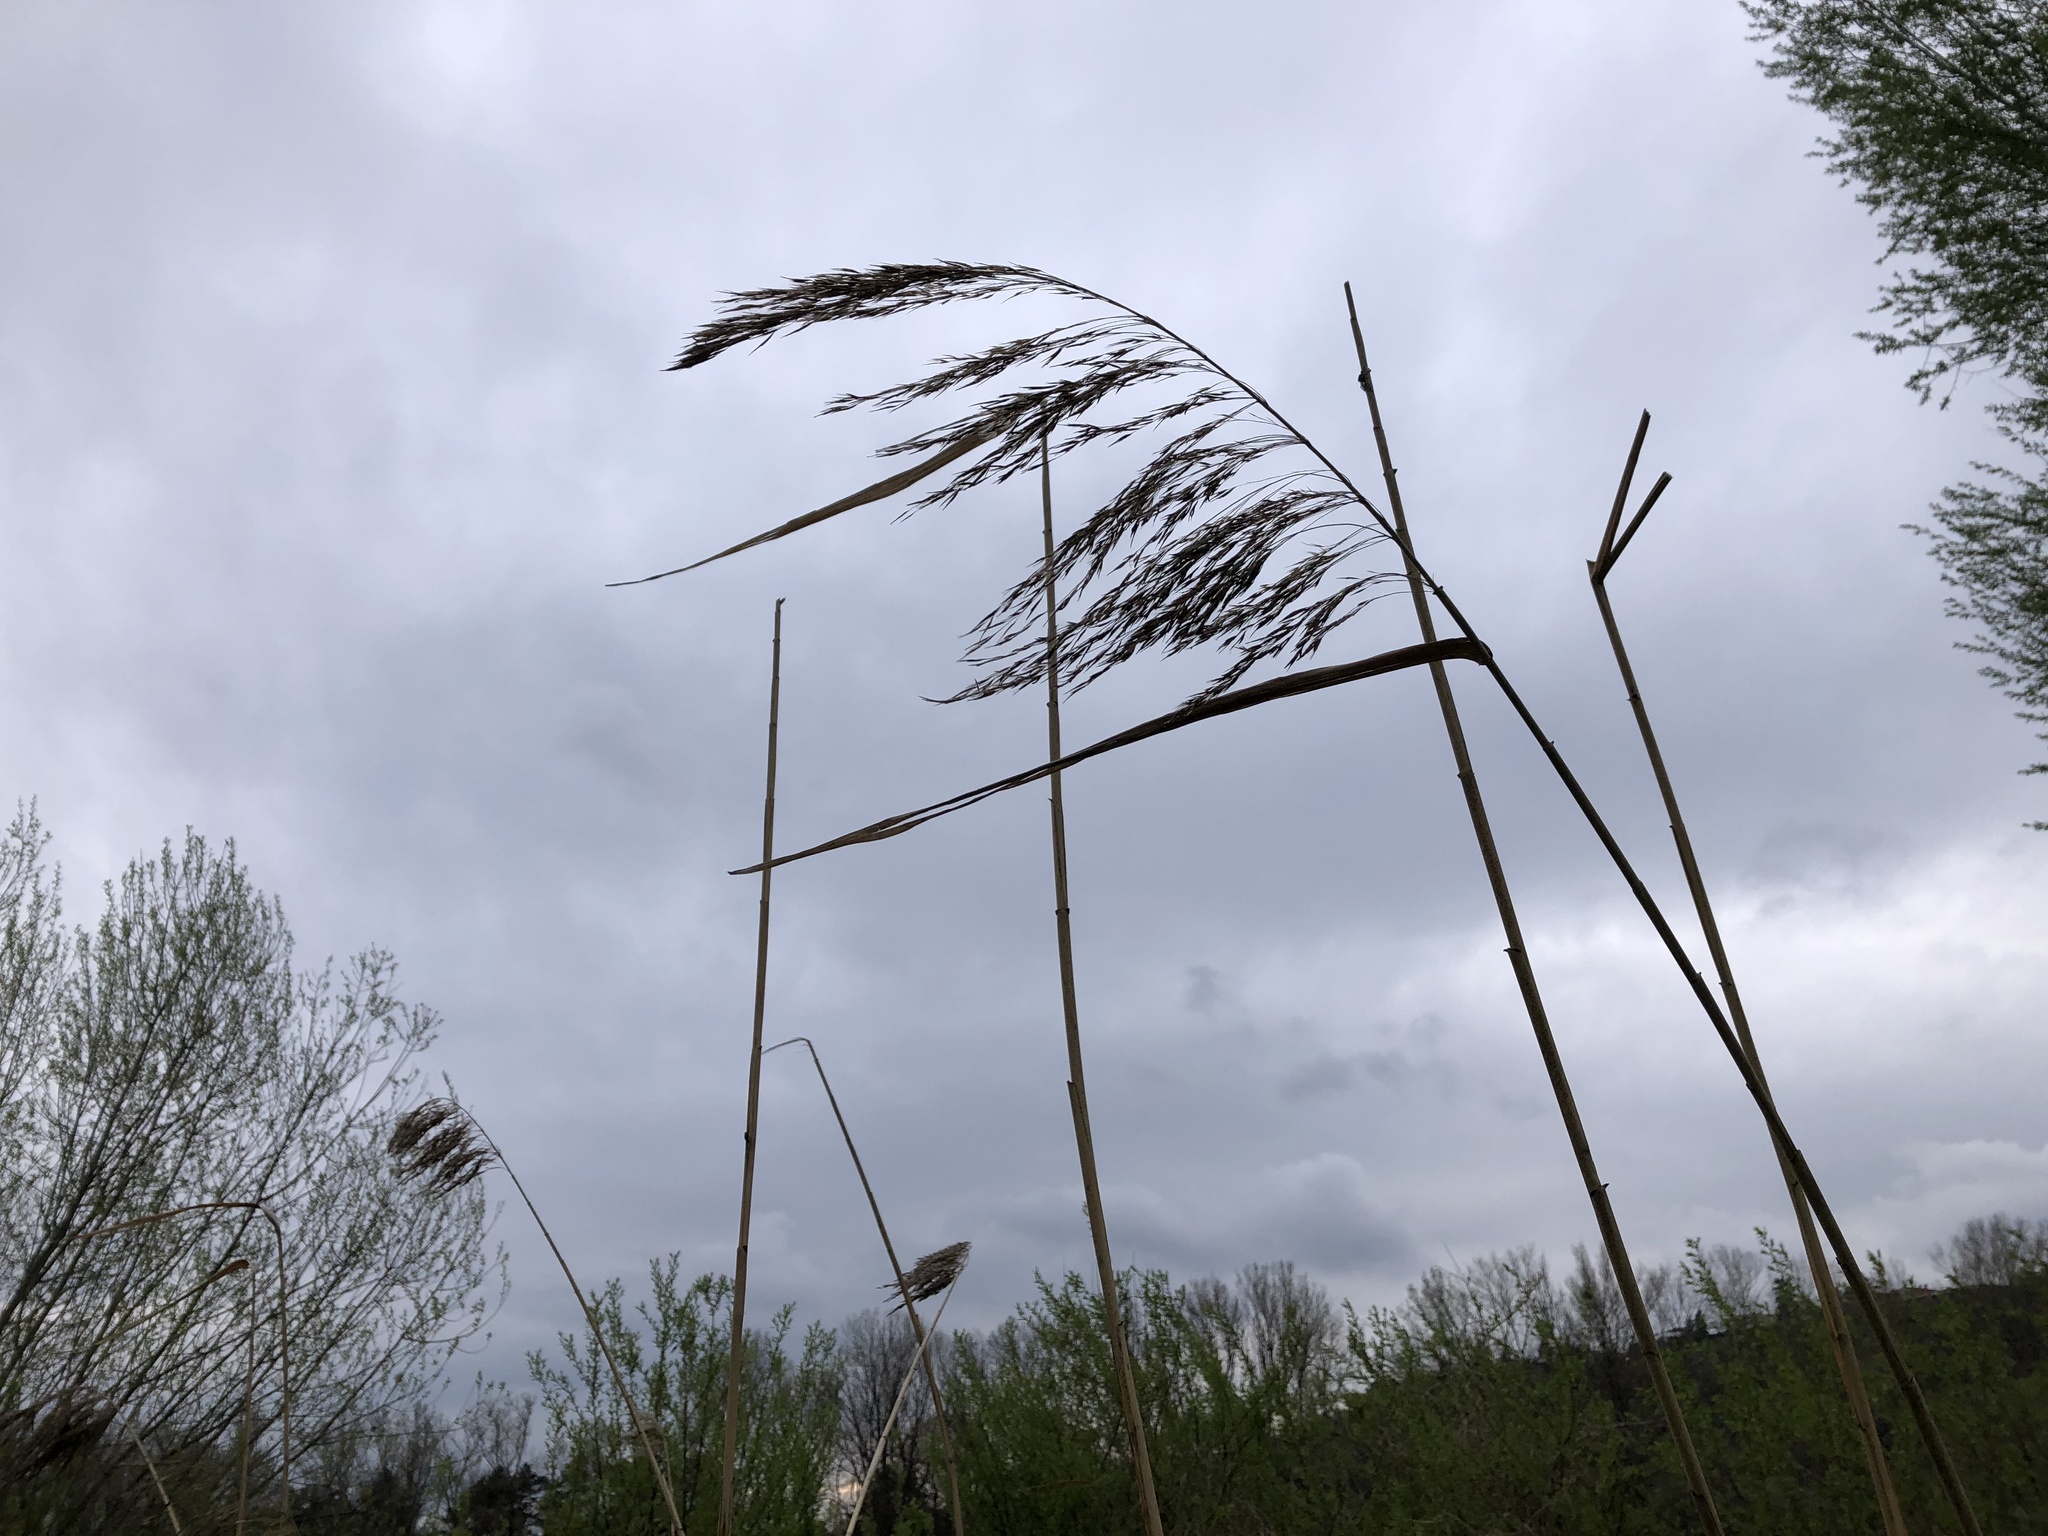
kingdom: Plantae
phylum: Tracheophyta
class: Liliopsida
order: Poales
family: Poaceae
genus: Phragmites
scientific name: Phragmites australis
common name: Common reed
